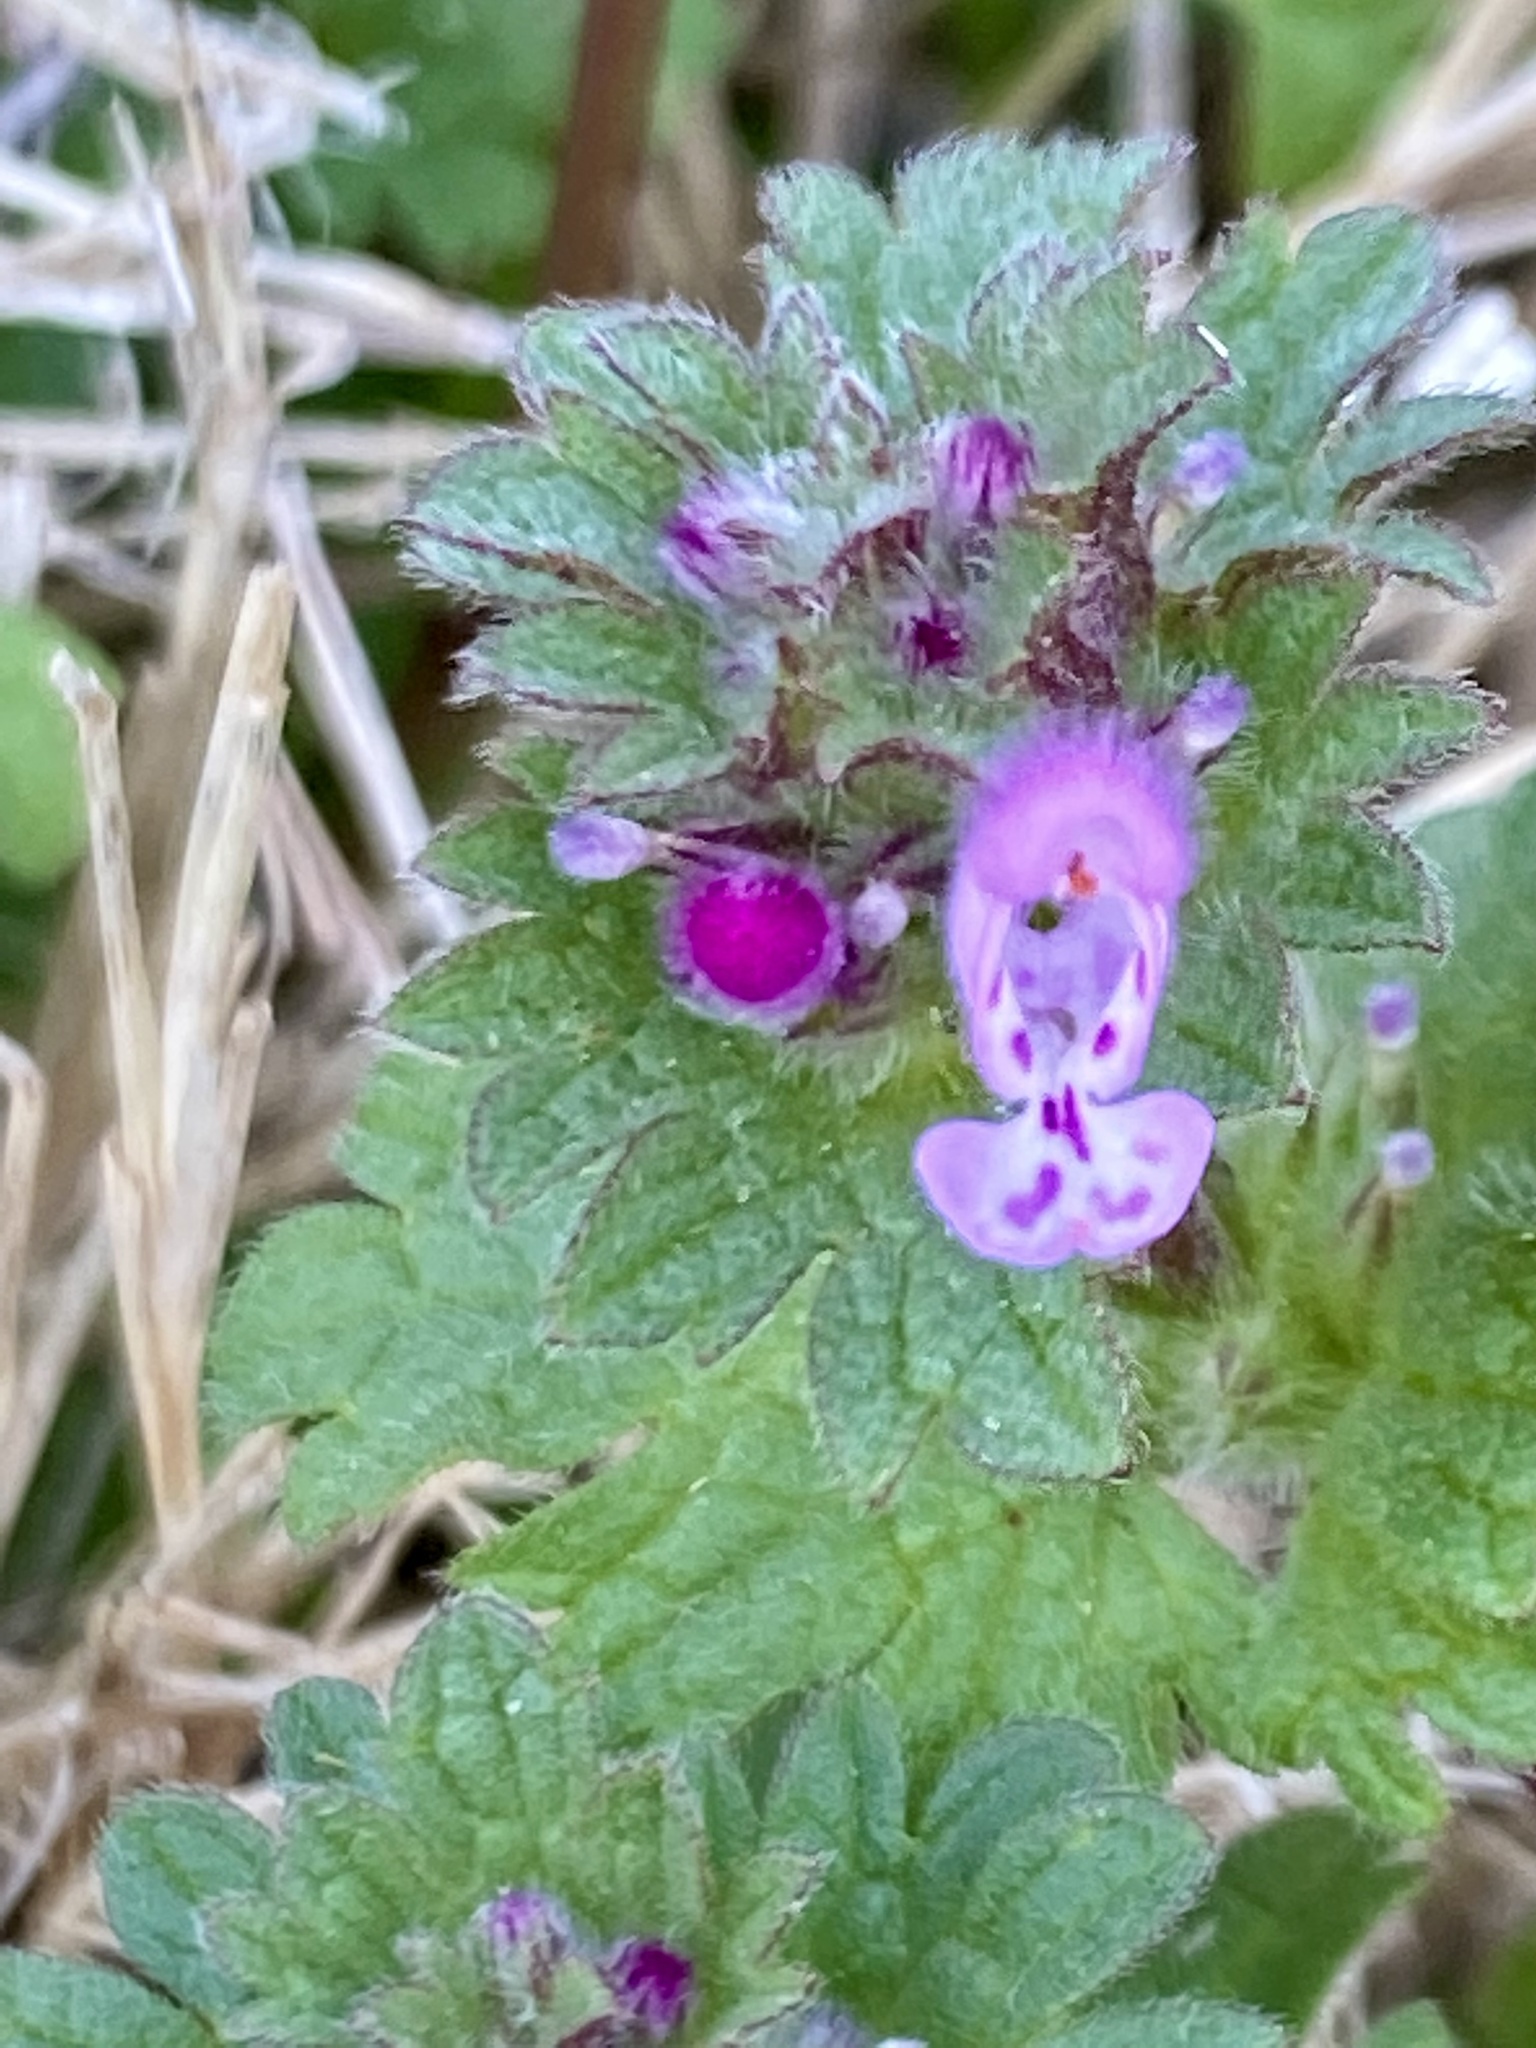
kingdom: Plantae
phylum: Tracheophyta
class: Magnoliopsida
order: Lamiales
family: Lamiaceae
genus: Lamium
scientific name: Lamium amplexicaule
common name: Henbit dead-nettle
